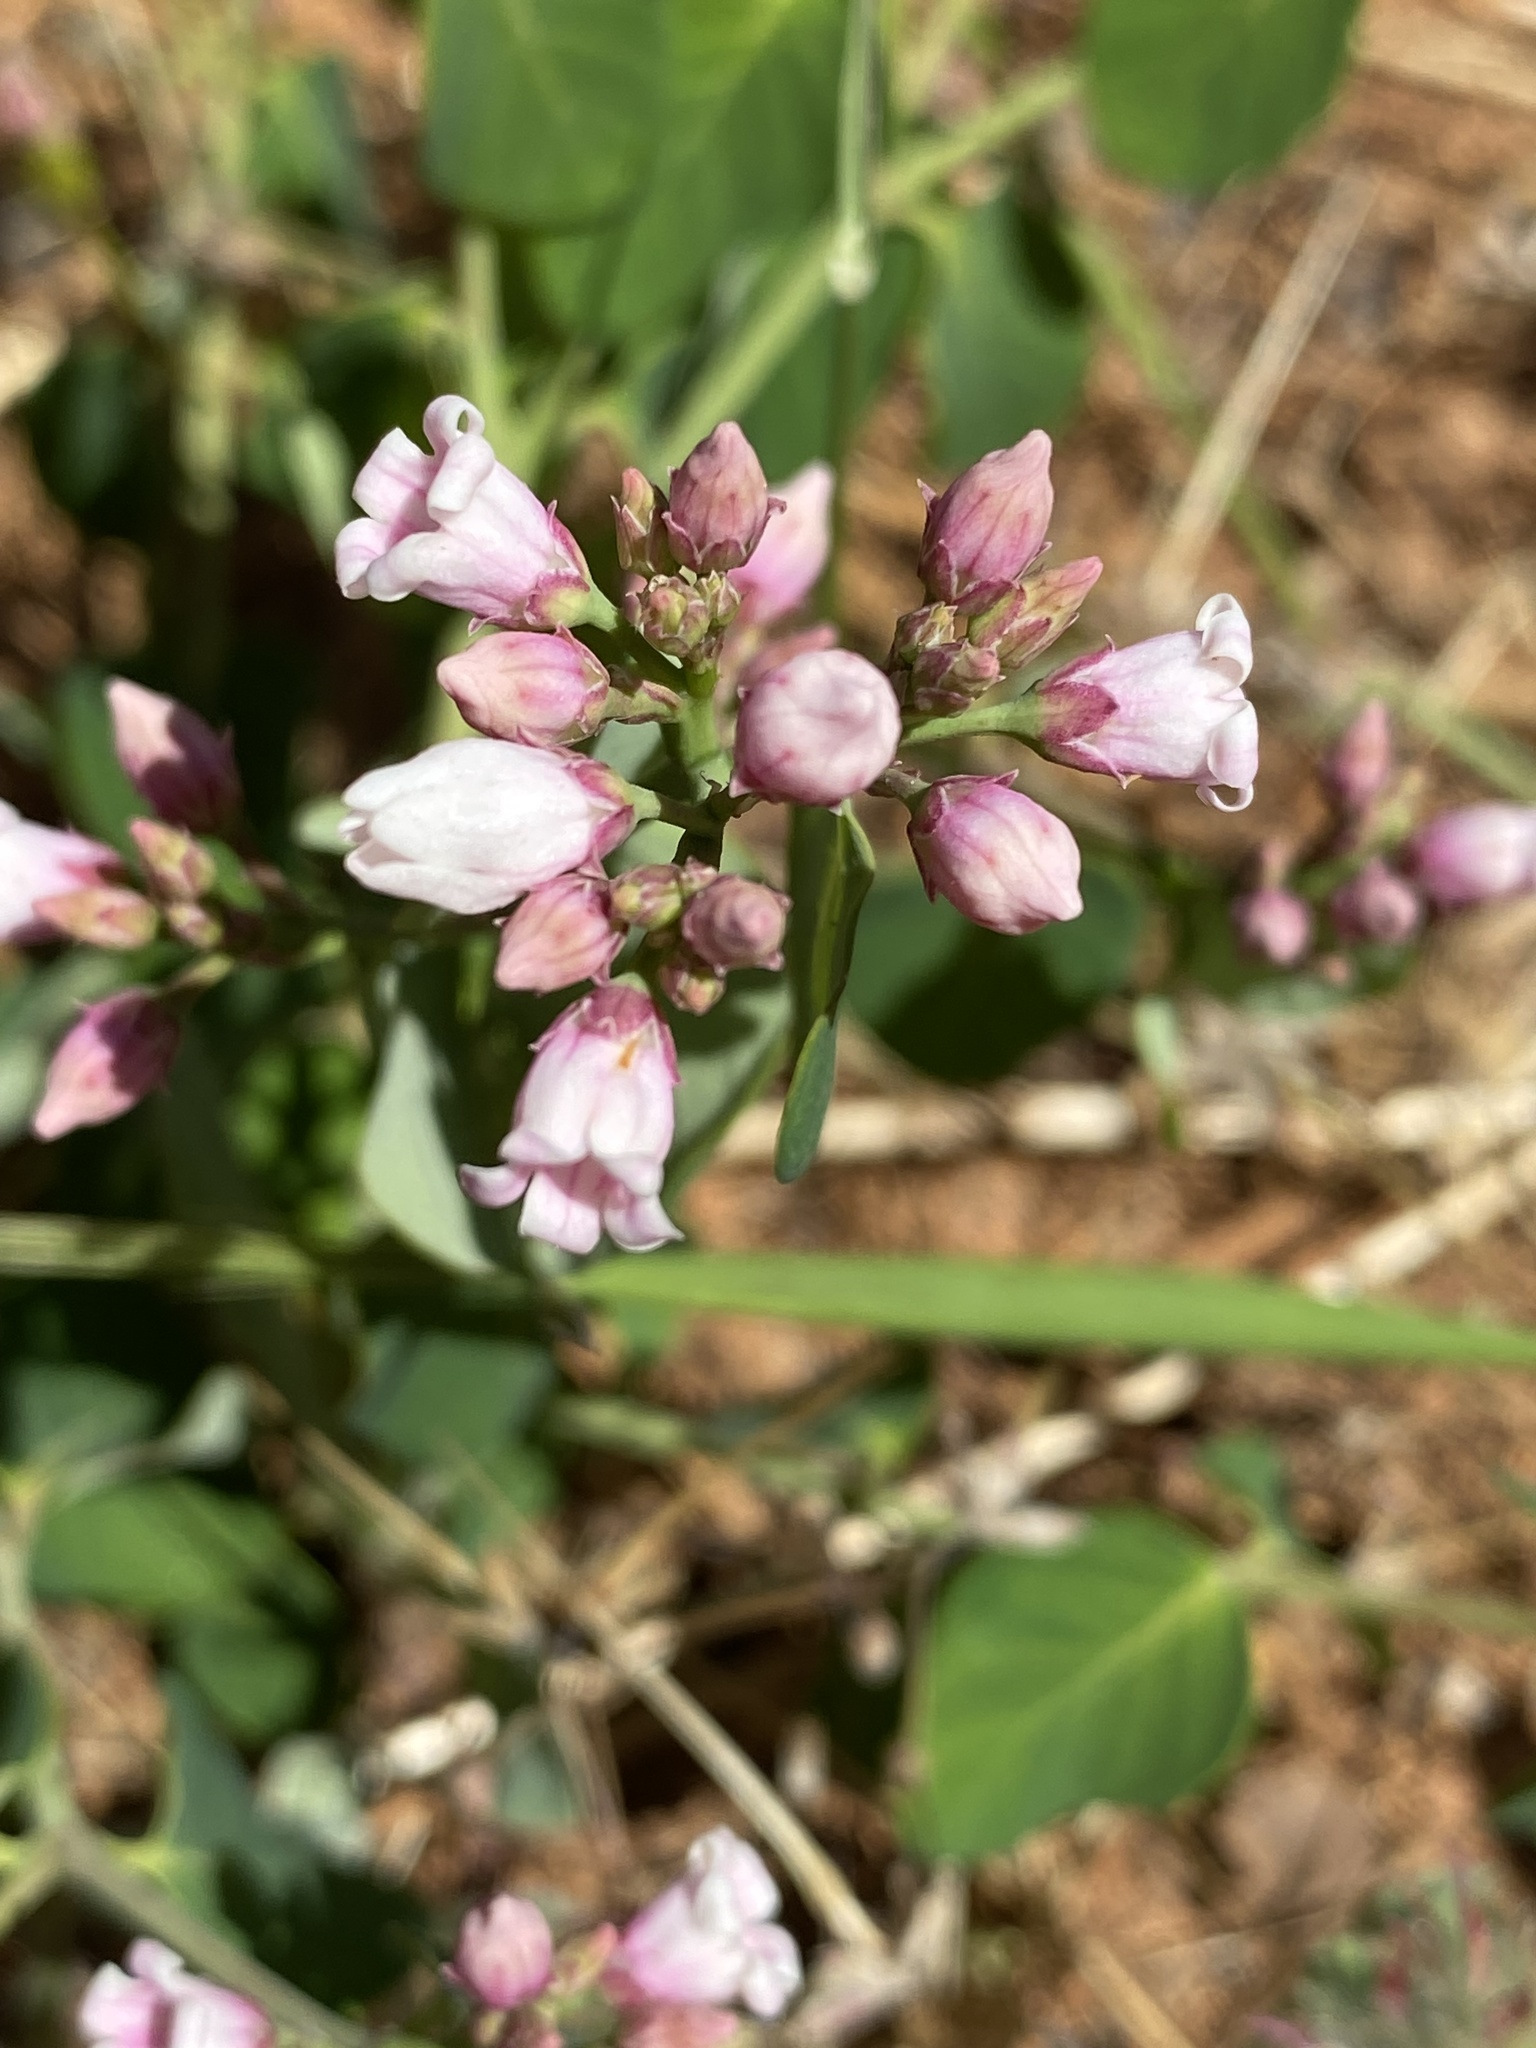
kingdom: Plantae
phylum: Tracheophyta
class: Magnoliopsida
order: Gentianales
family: Apocynaceae
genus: Apocynum
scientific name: Apocynum androsaemifolium
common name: Spreading dogbane
